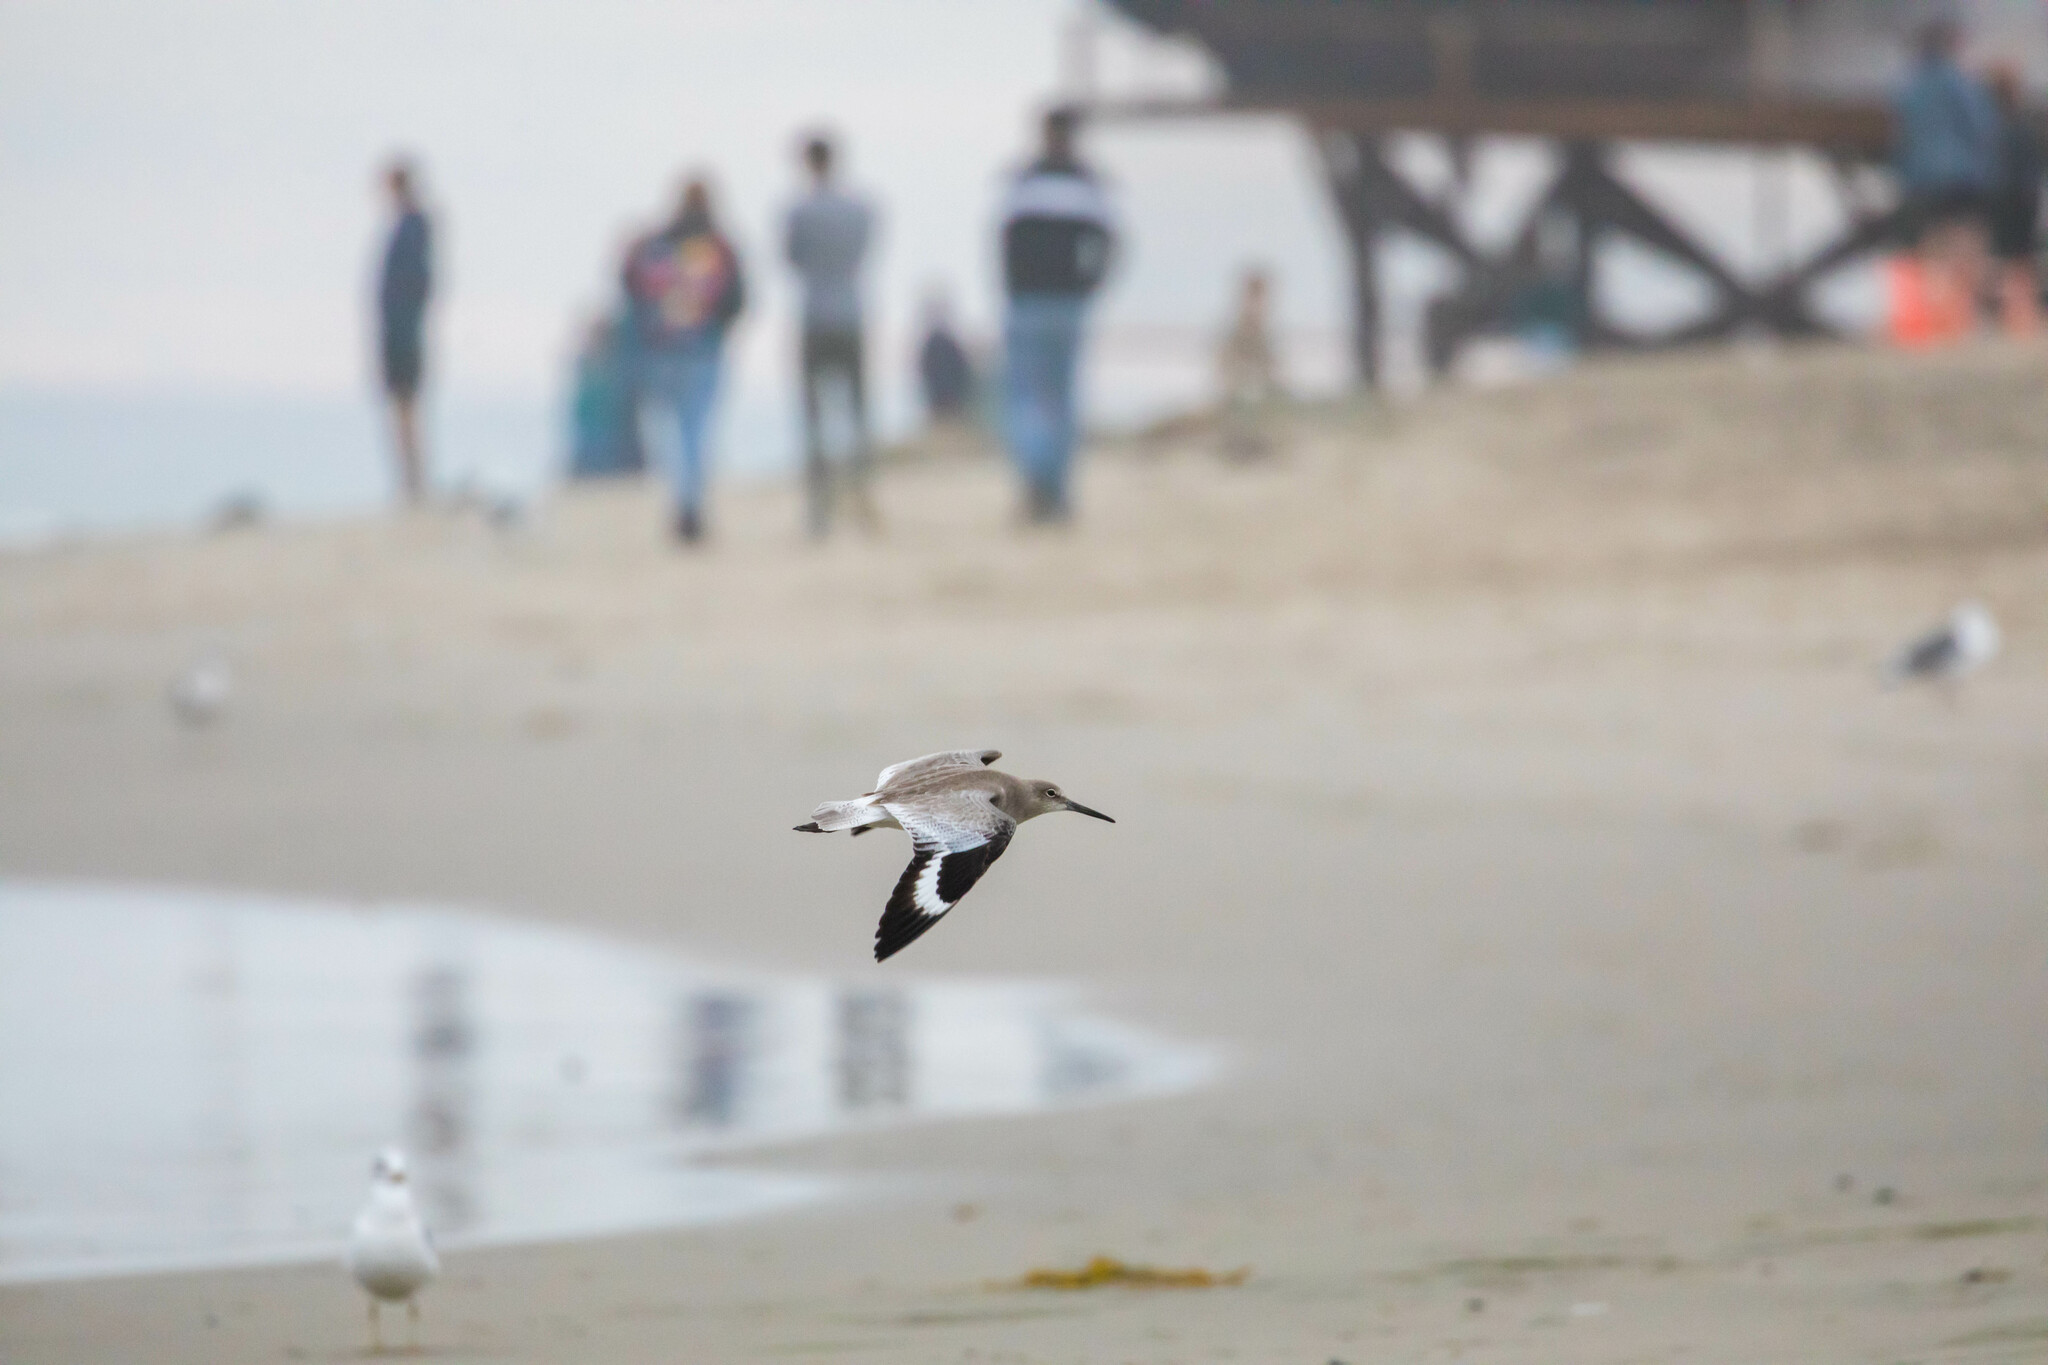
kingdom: Animalia
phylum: Chordata
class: Aves
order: Charadriiformes
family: Scolopacidae
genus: Tringa
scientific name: Tringa semipalmata
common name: Willet
